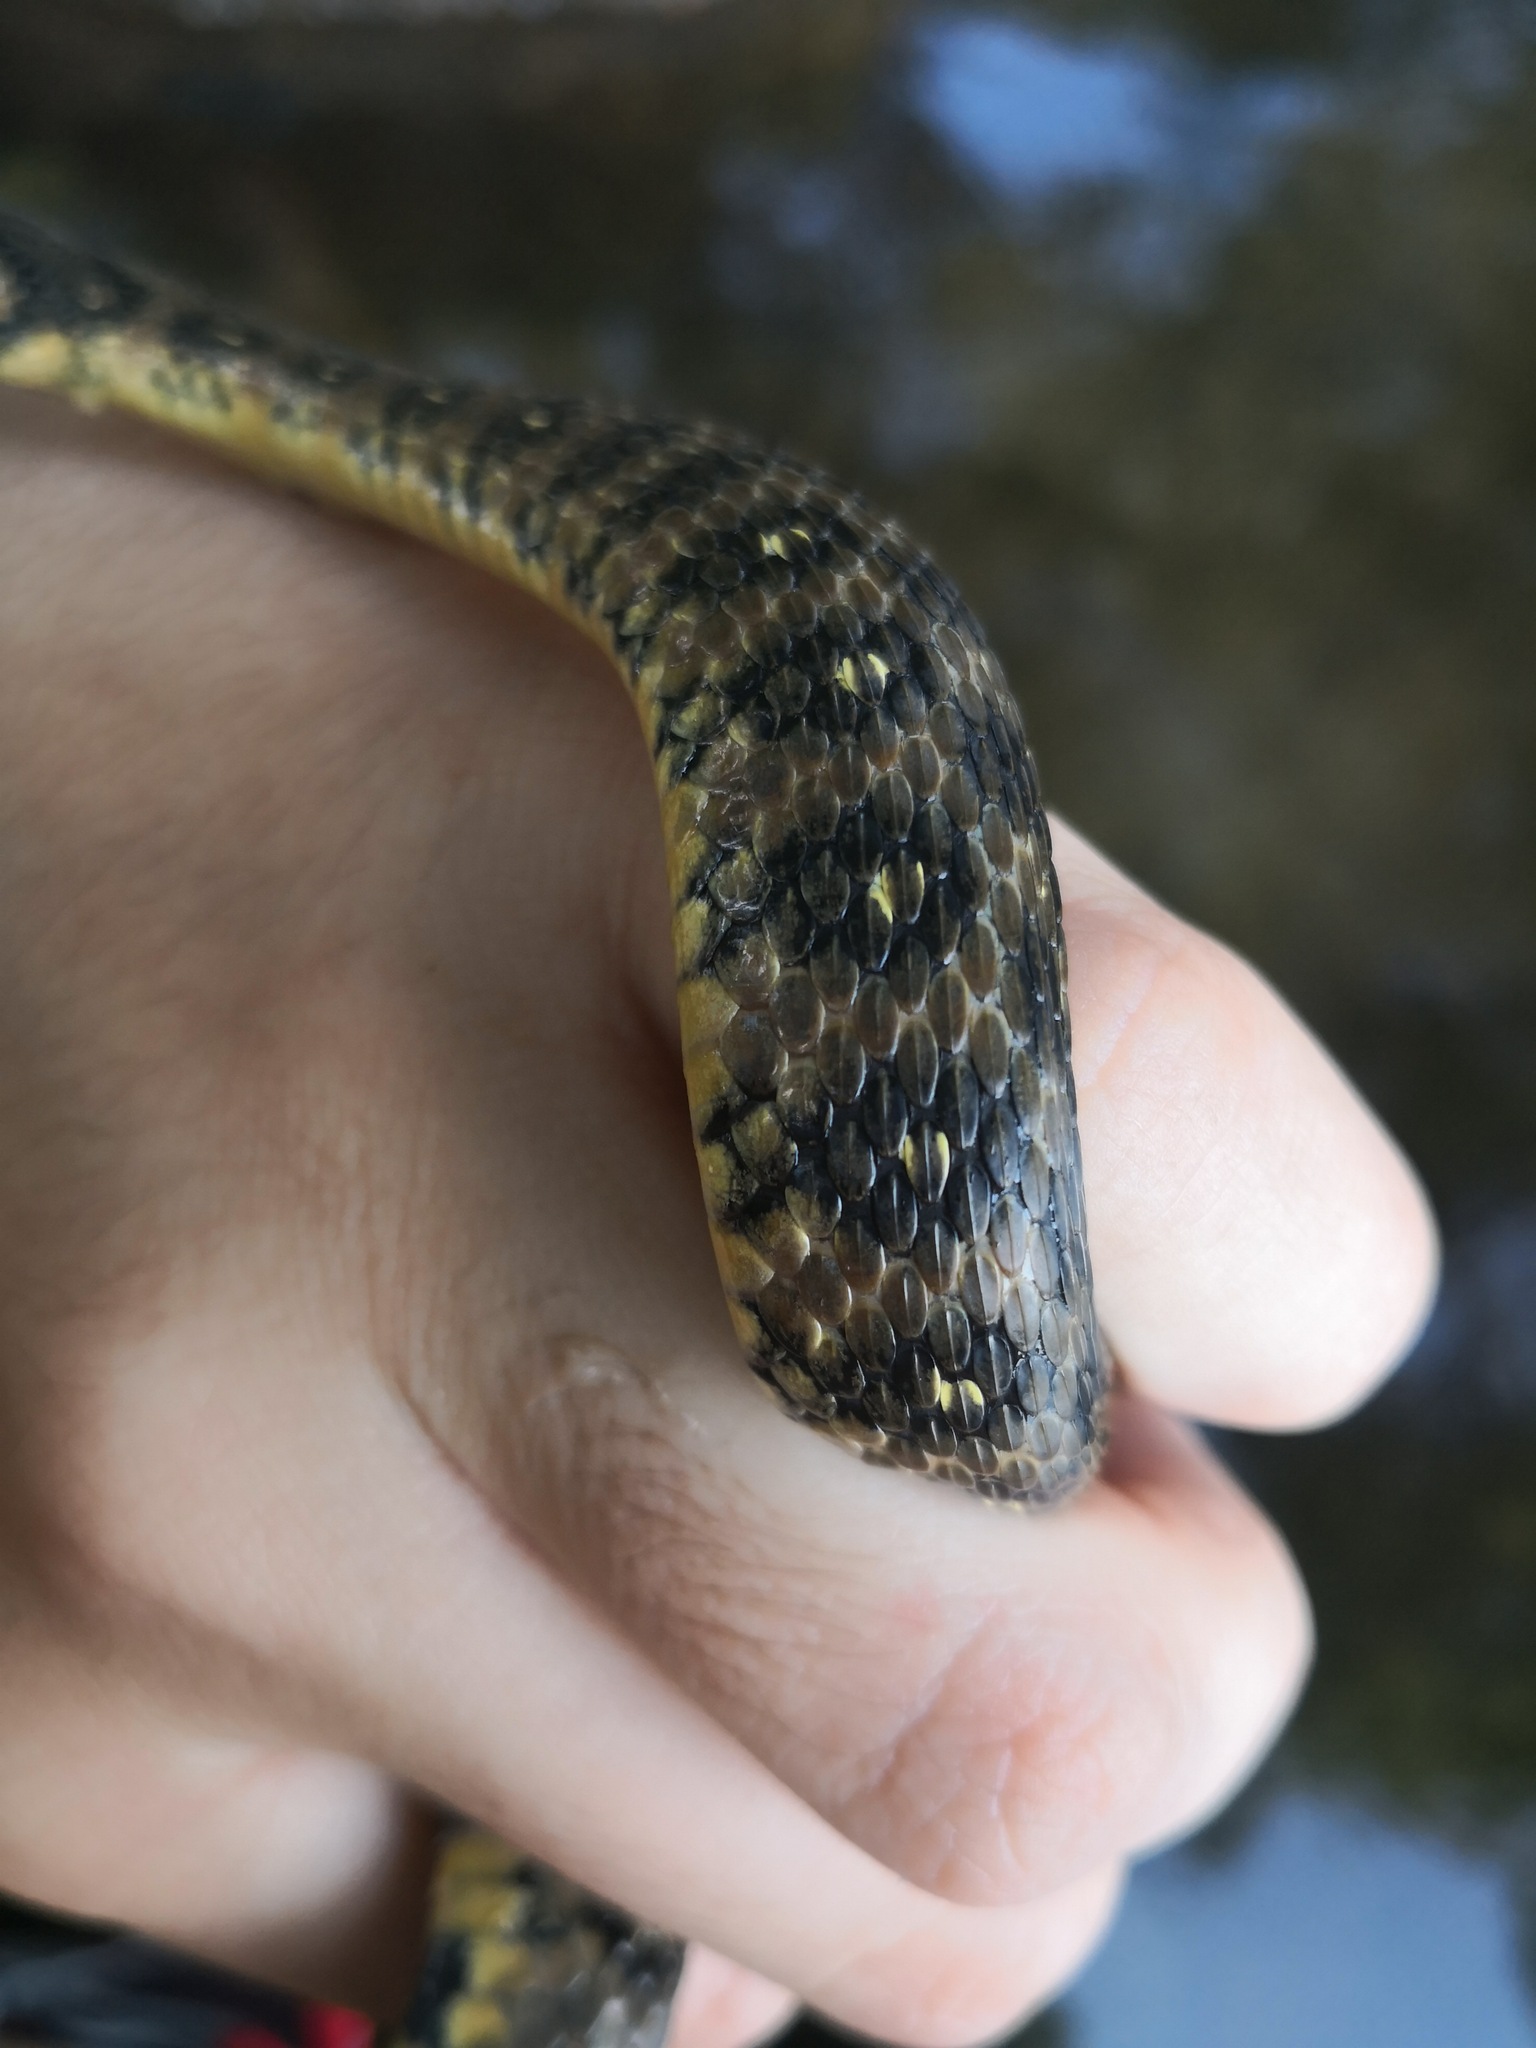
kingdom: Animalia
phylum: Chordata
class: Squamata
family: Colubridae
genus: Natrix
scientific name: Natrix maura
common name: Viperine water snake
